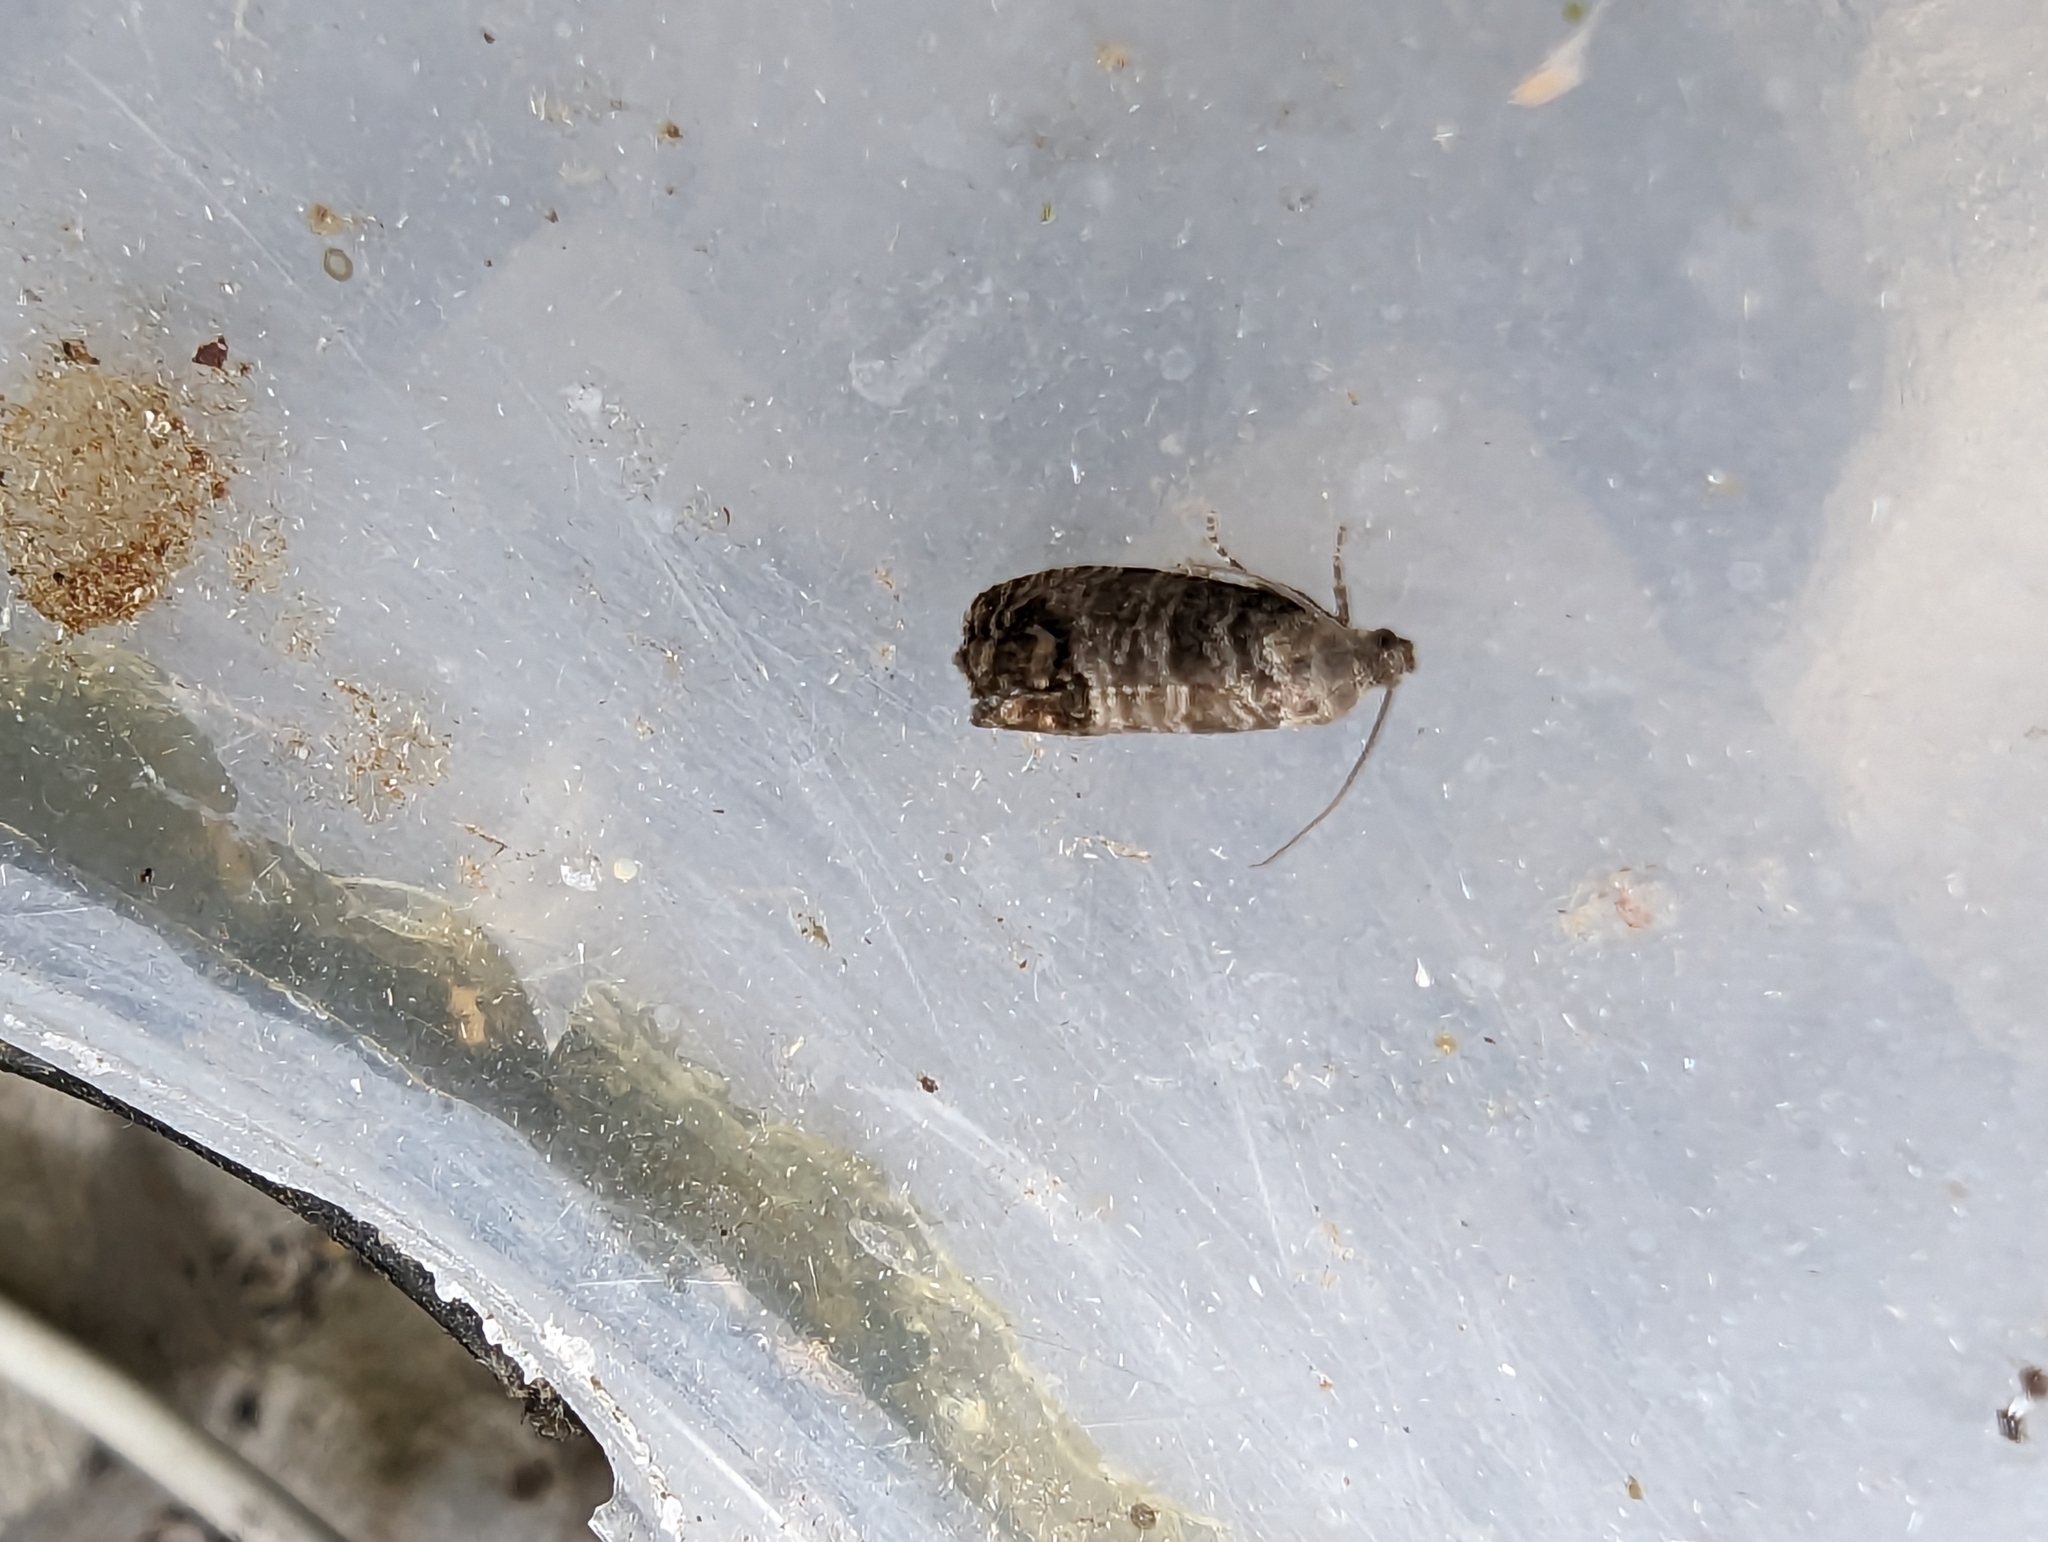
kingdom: Animalia
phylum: Arthropoda
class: Insecta
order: Lepidoptera
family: Tortricidae
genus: Cydia
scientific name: Cydia pomonella
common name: Codling moth
